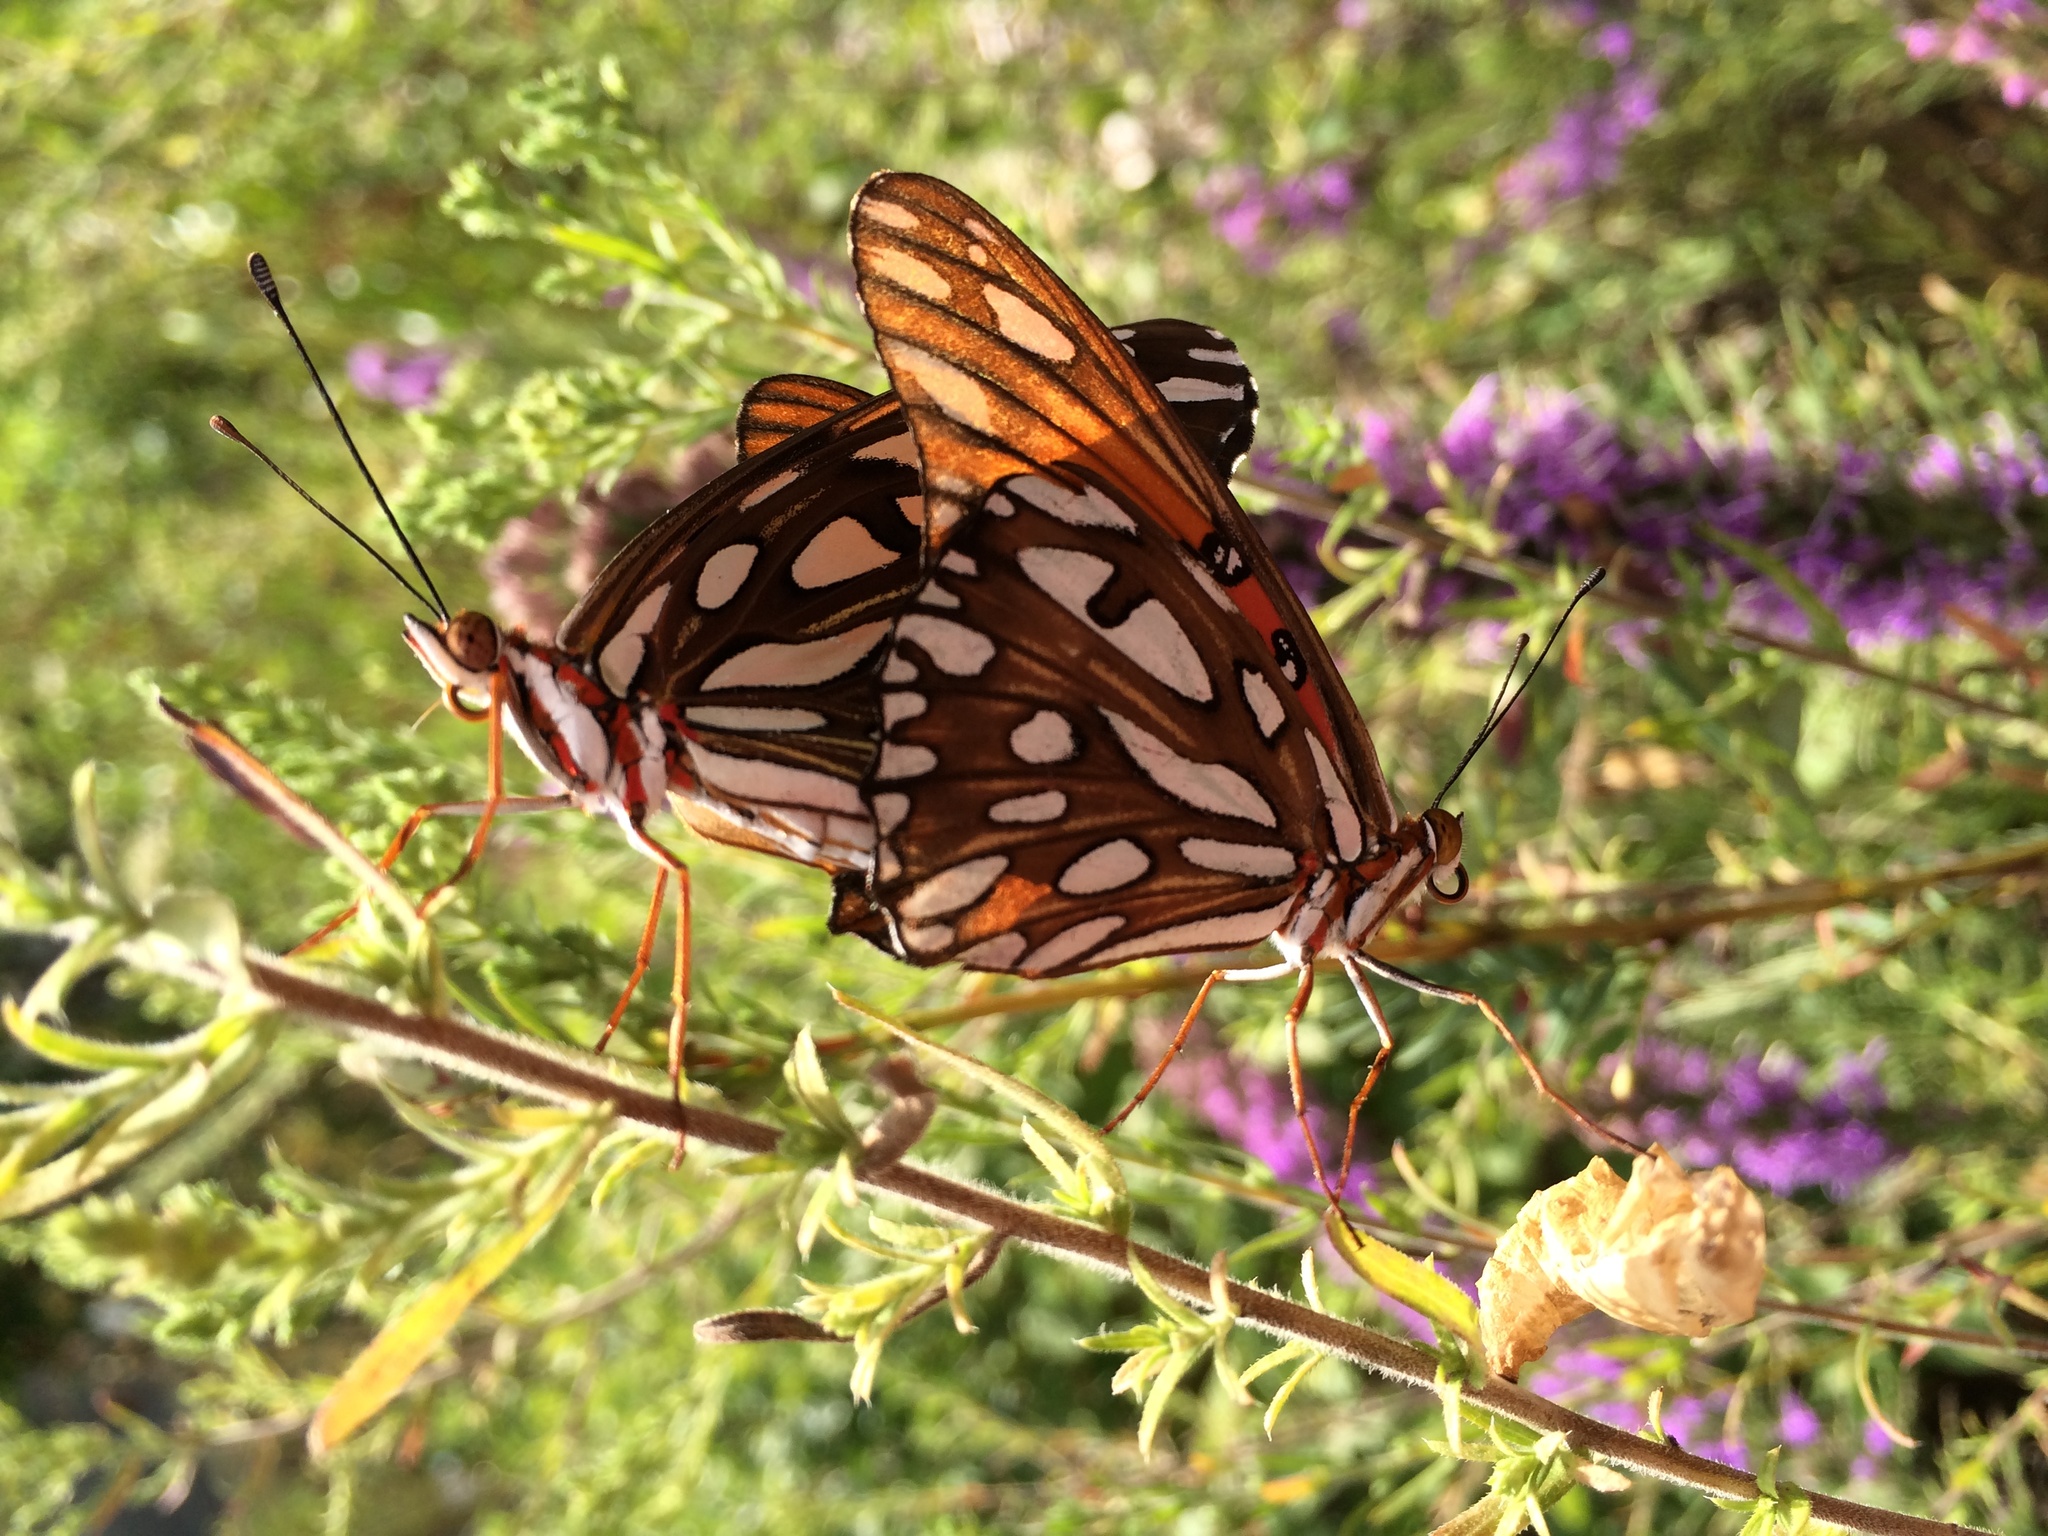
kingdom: Animalia
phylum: Arthropoda
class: Insecta
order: Lepidoptera
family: Nymphalidae
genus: Dione
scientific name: Dione vanillae
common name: Gulf fritillary
